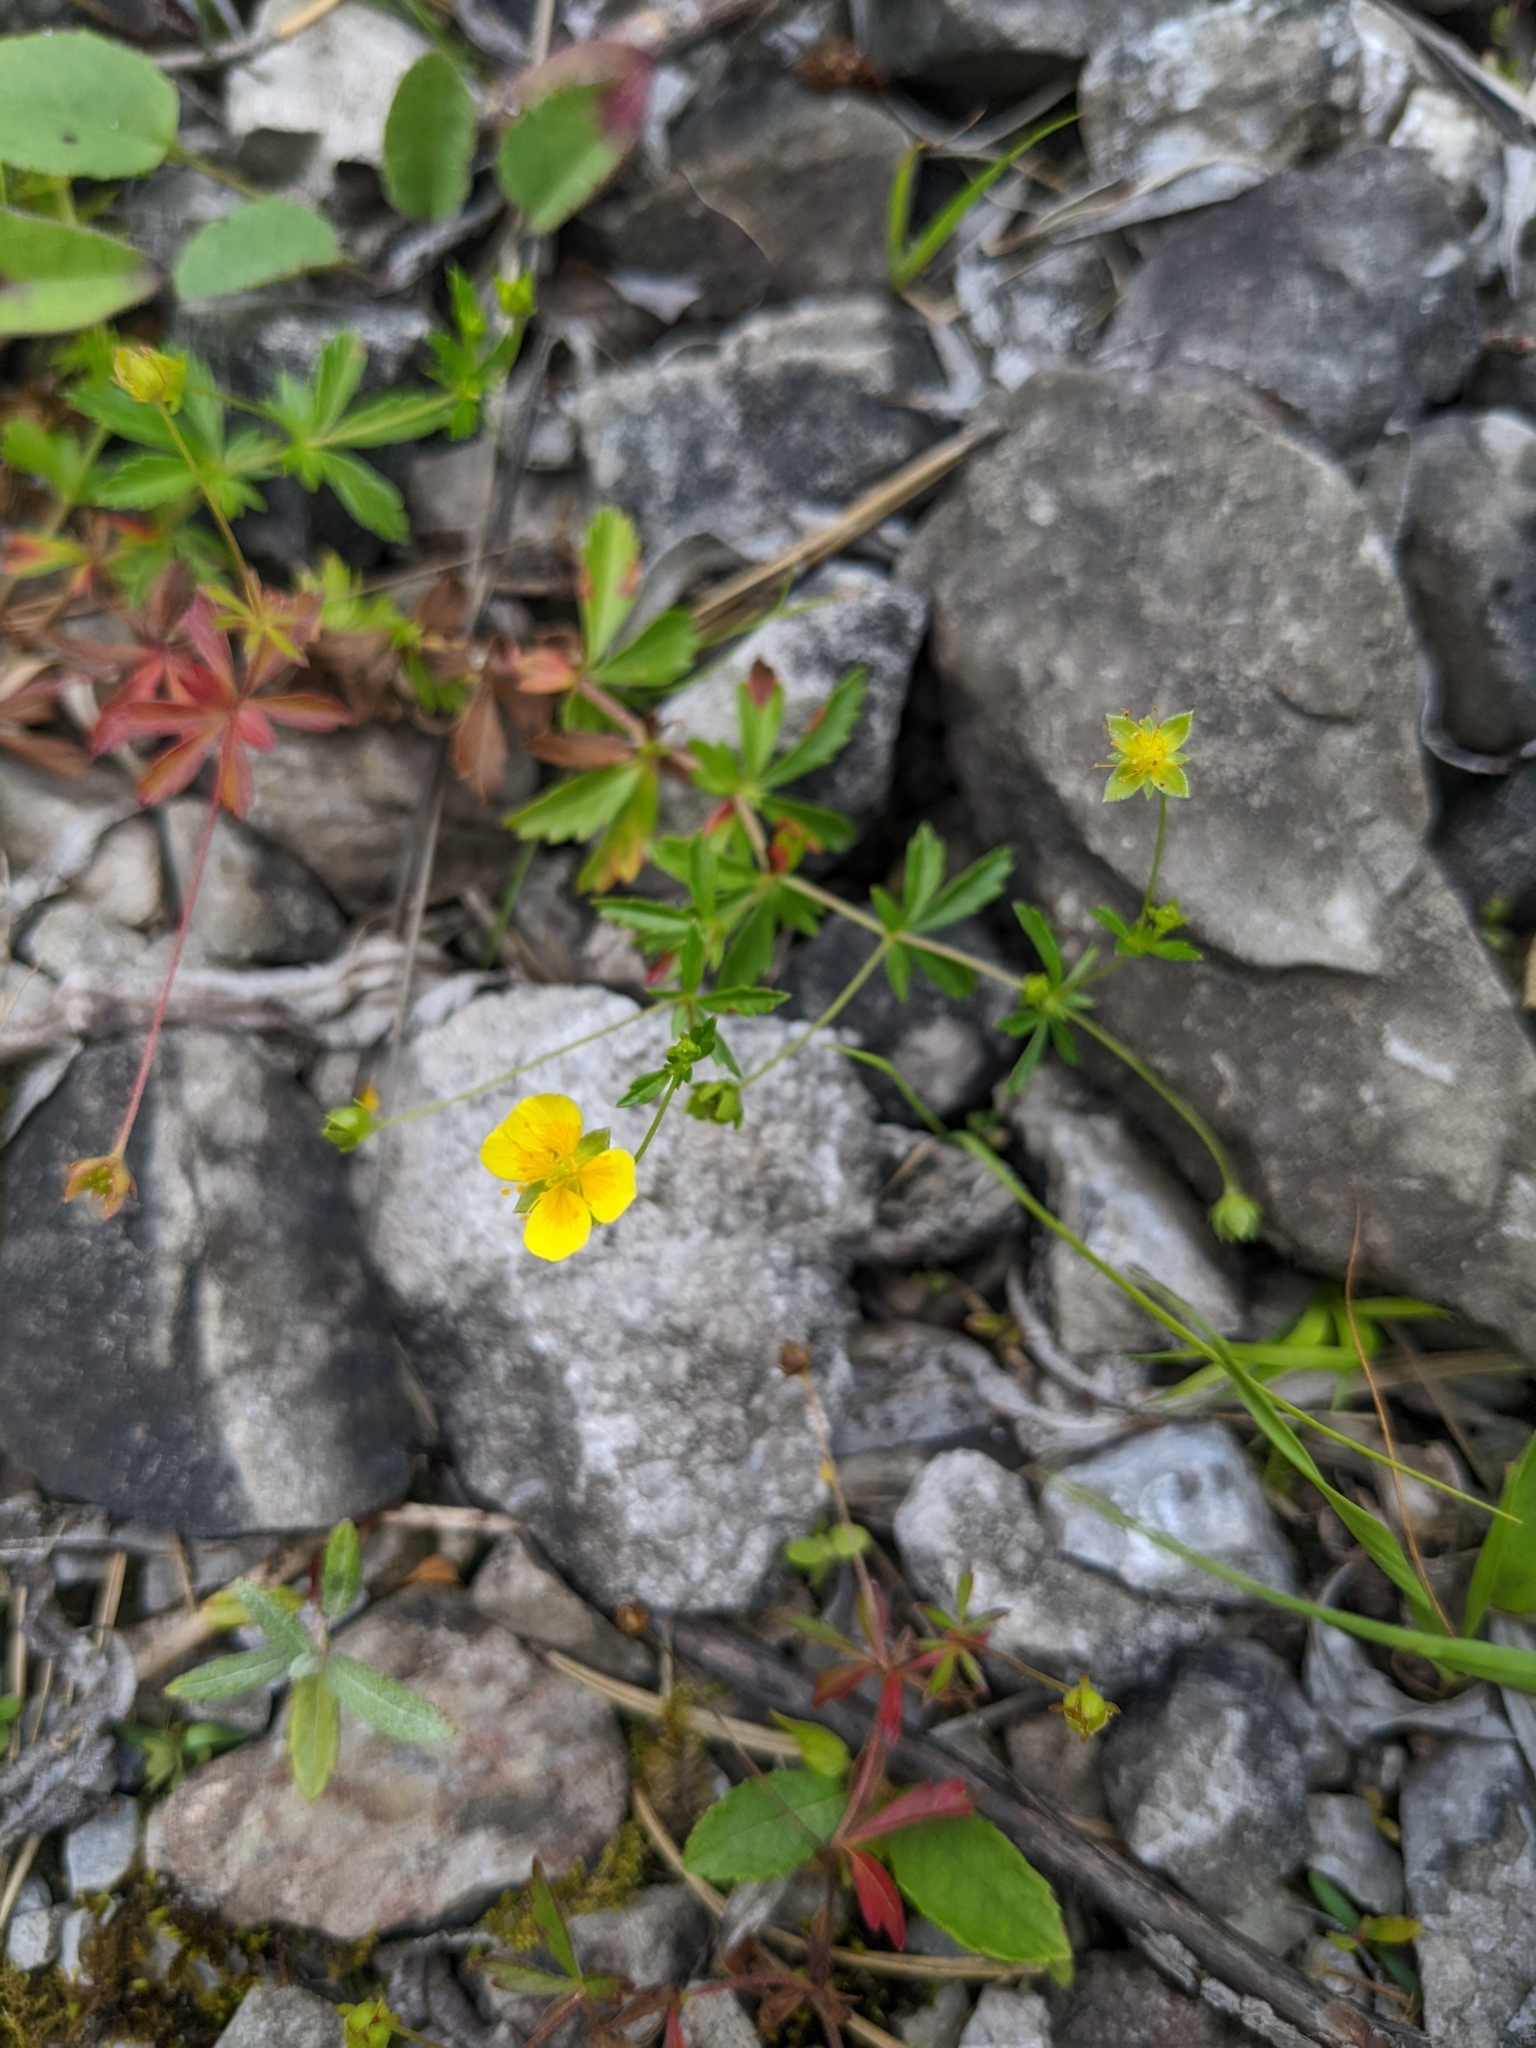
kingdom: Plantae
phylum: Tracheophyta
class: Magnoliopsida
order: Rosales
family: Rosaceae
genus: Potentilla
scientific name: Potentilla erecta
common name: Tormentil
